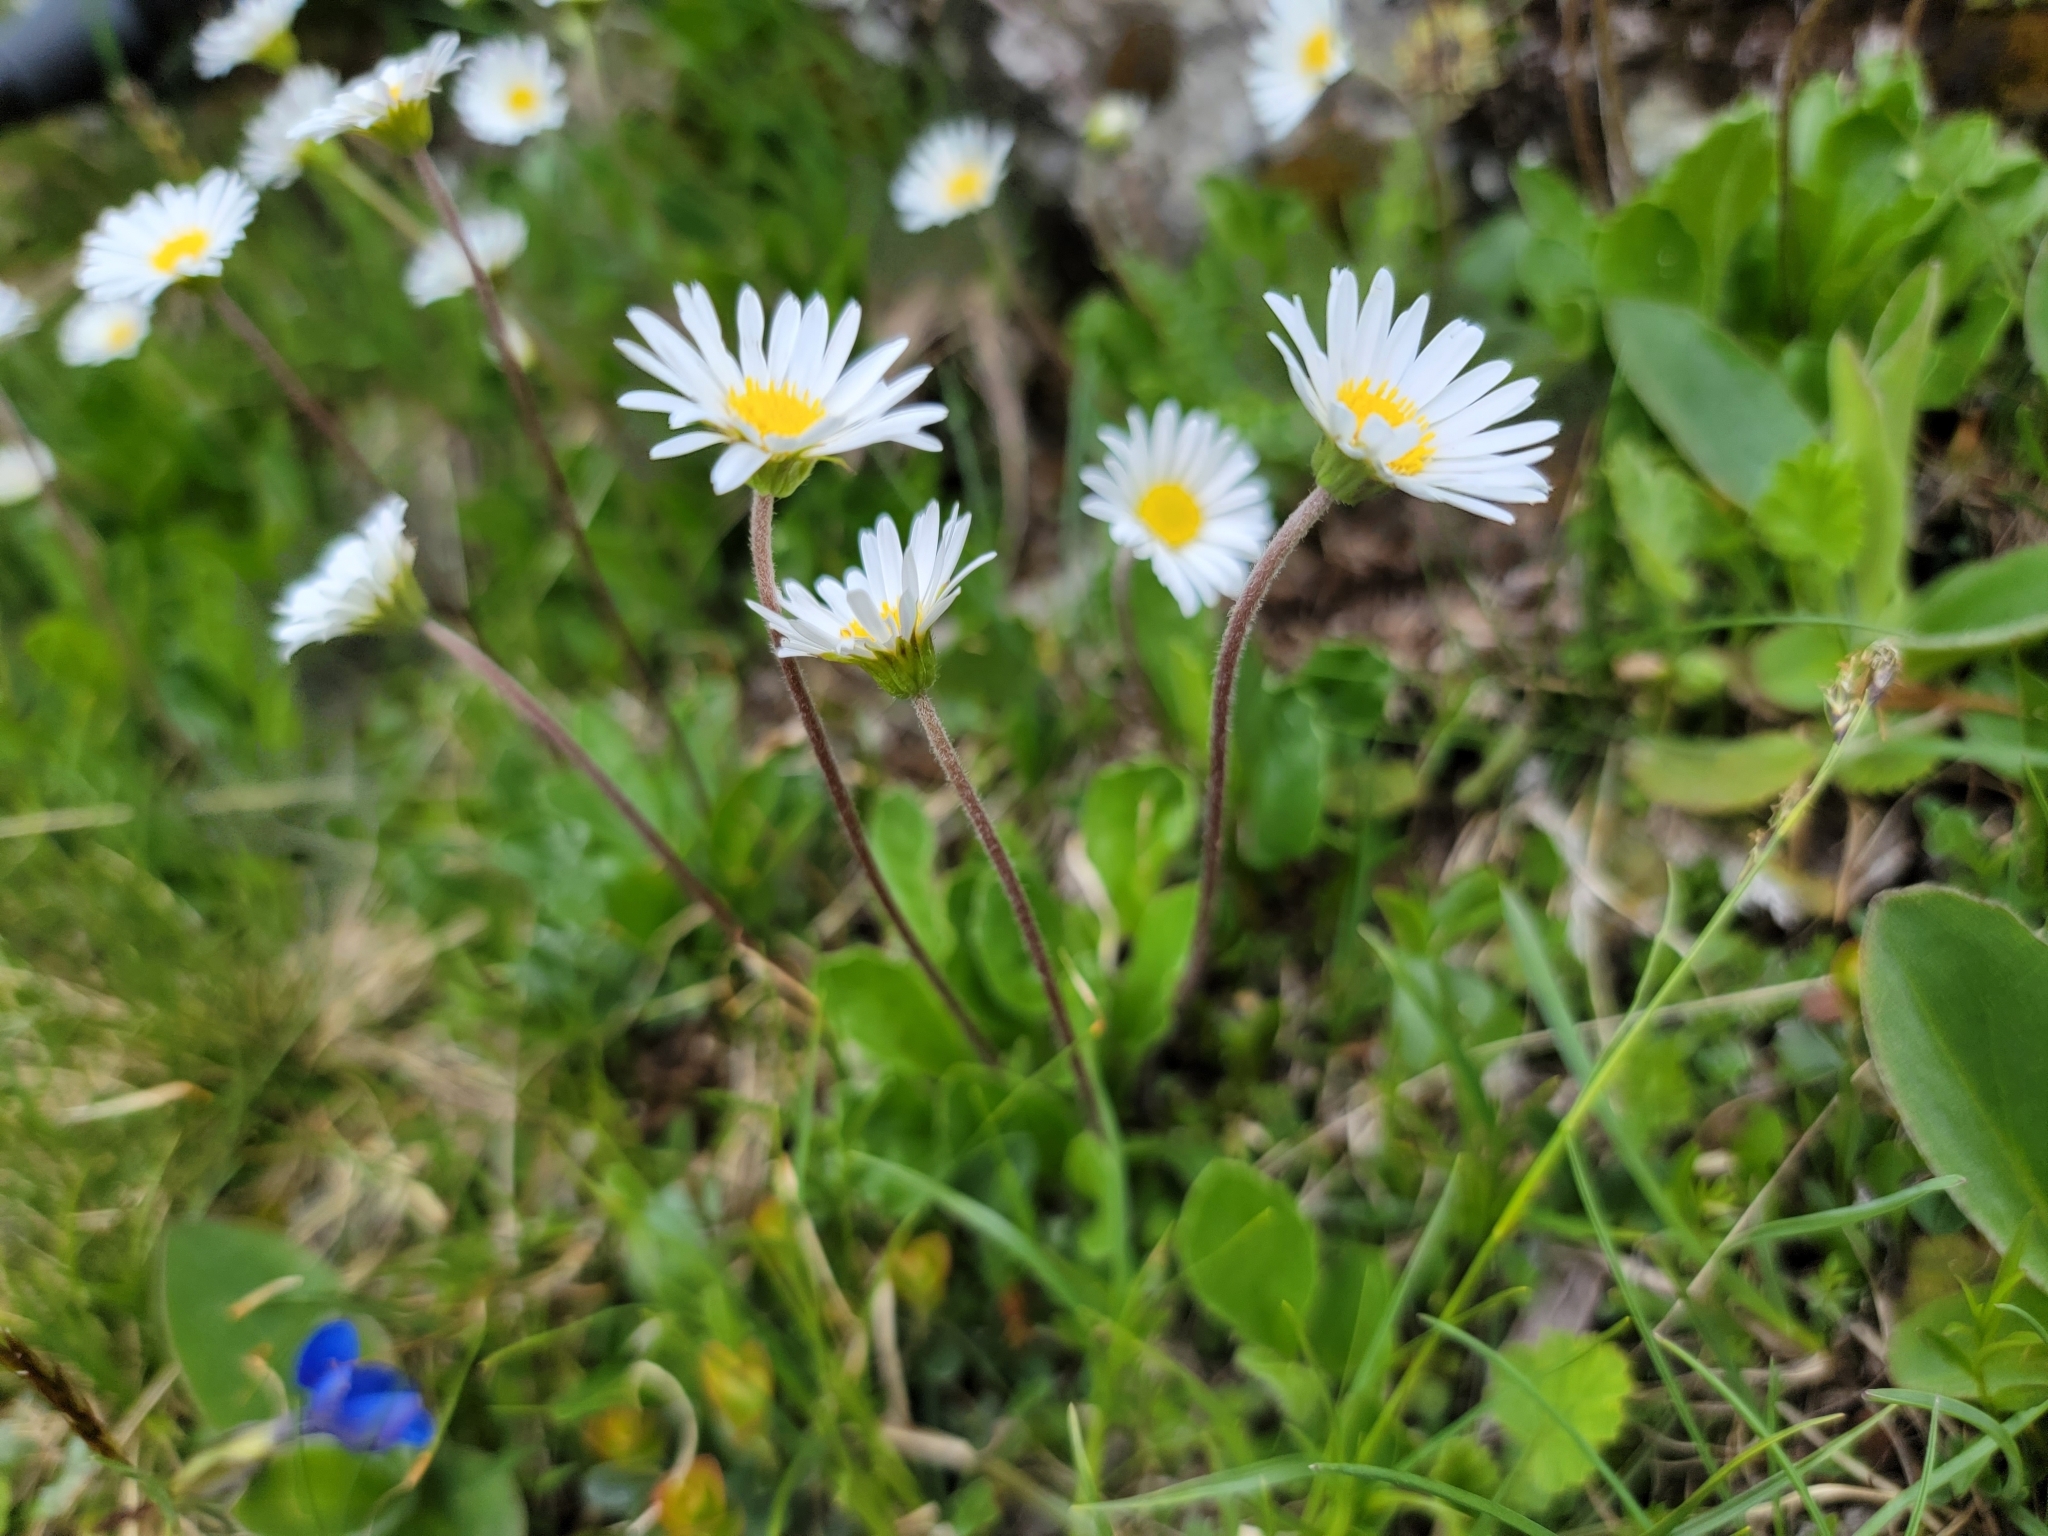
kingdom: Plantae
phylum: Tracheophyta
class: Magnoliopsida
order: Asterales
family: Asteraceae
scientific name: Asteraceae
